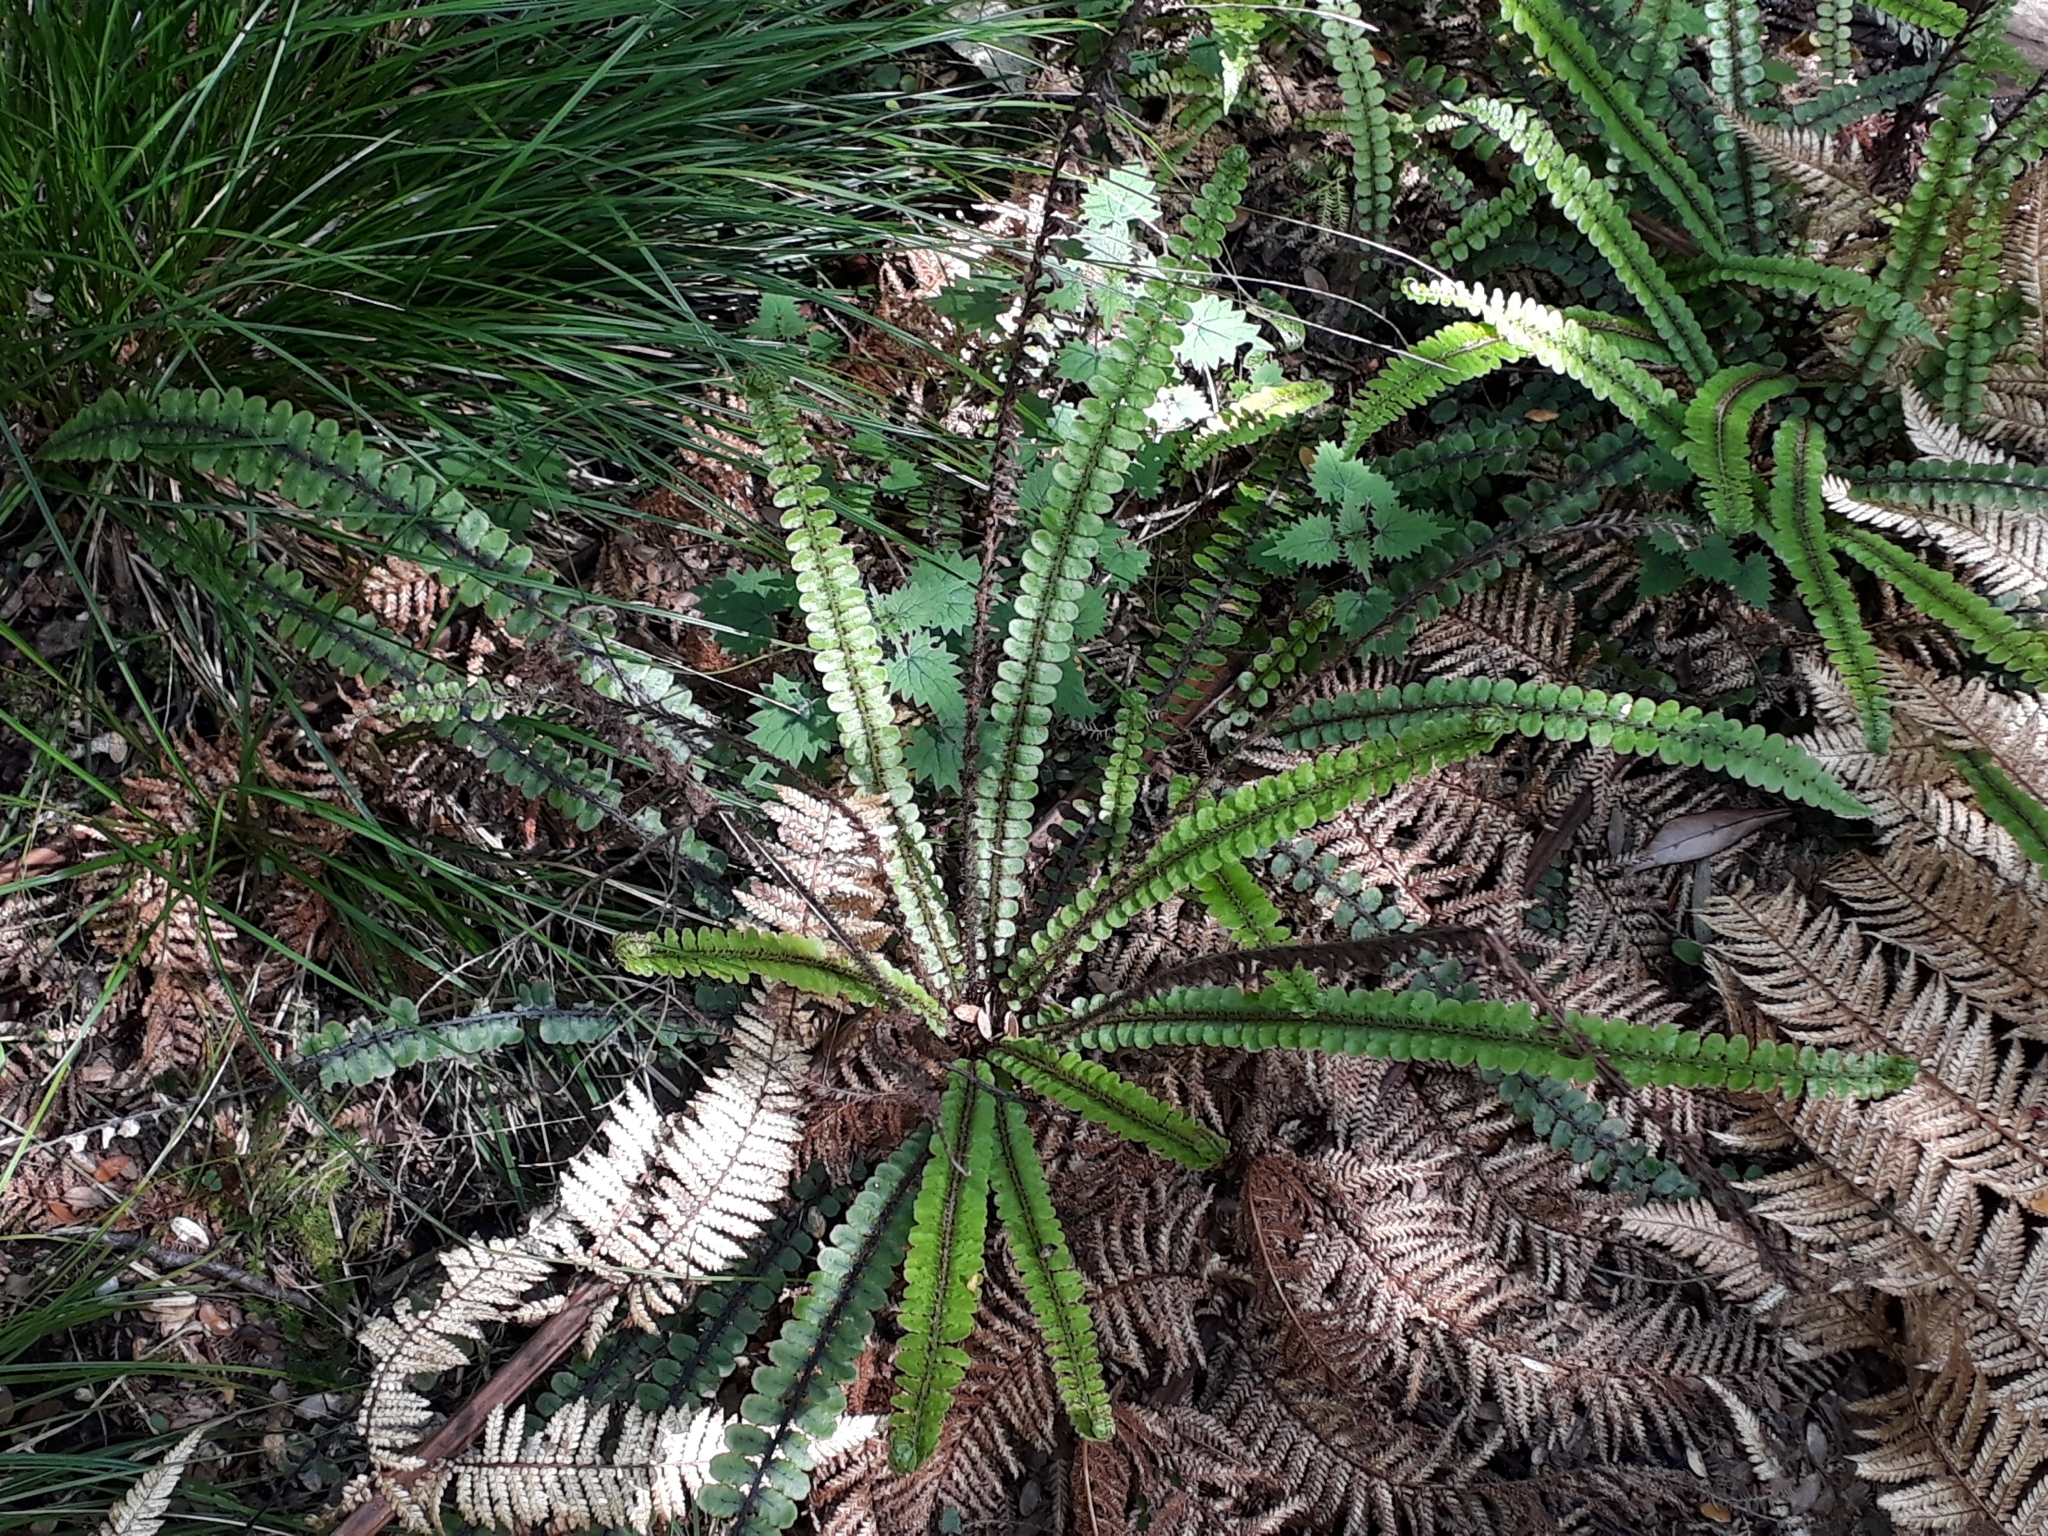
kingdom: Plantae
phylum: Tracheophyta
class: Polypodiopsida
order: Polypodiales
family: Blechnaceae
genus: Cranfillia
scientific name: Cranfillia fluviatilis
